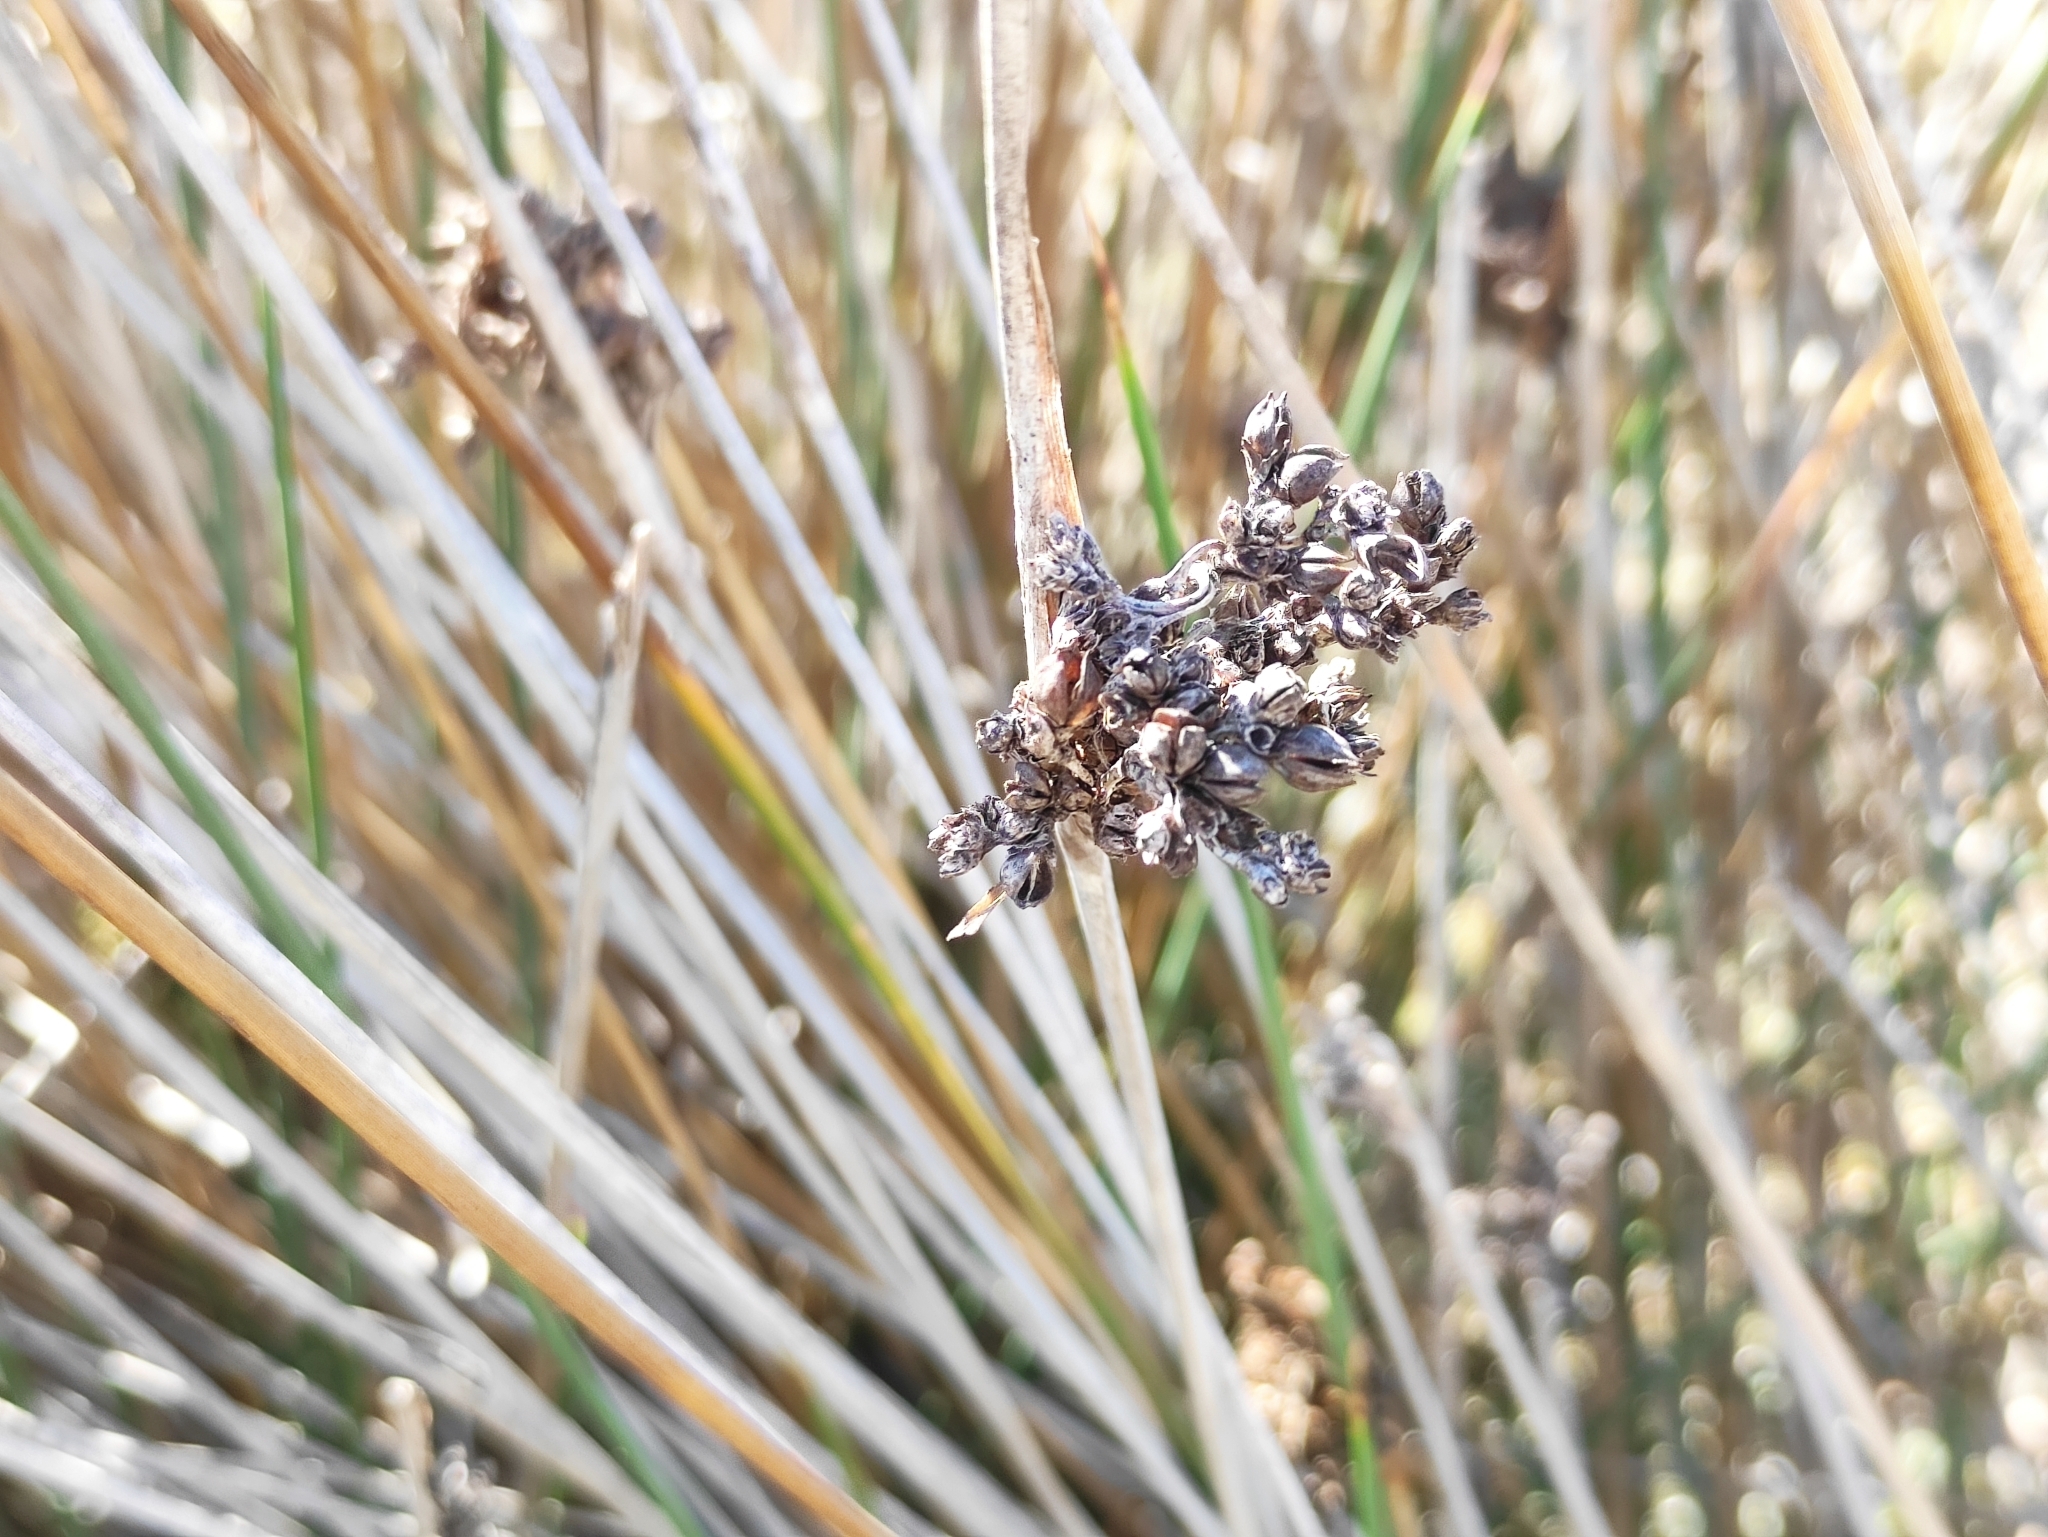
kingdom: Plantae
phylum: Tracheophyta
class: Liliopsida
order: Poales
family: Juncaceae
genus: Juncus
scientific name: Juncus acutus
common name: Sharp rush
